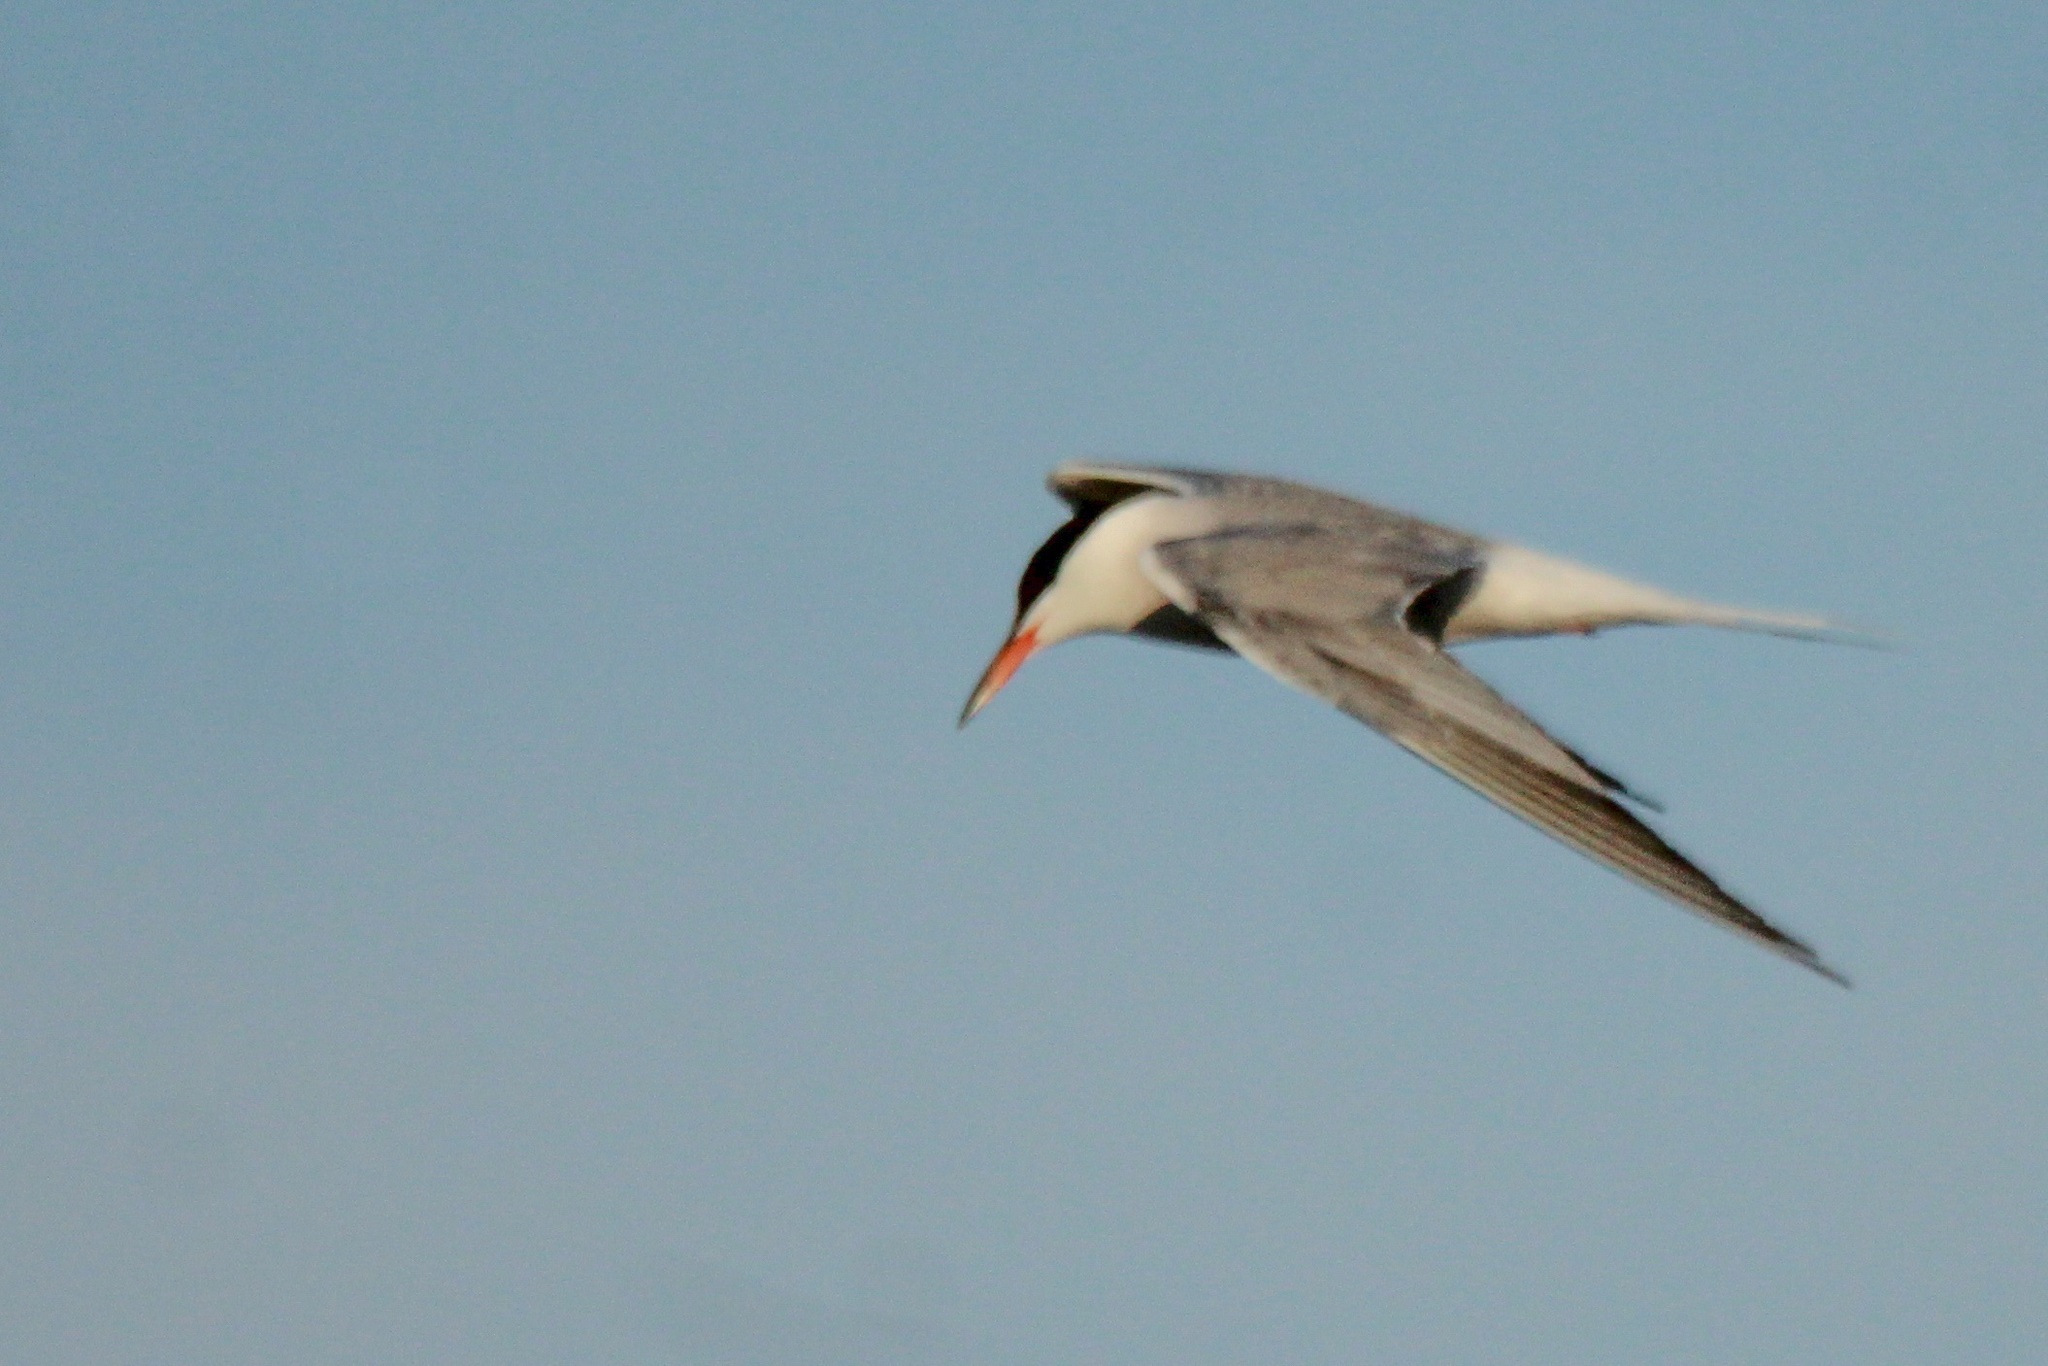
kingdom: Animalia
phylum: Chordata
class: Aves
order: Charadriiformes
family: Laridae
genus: Sterna
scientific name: Sterna hirundo
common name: Common tern
